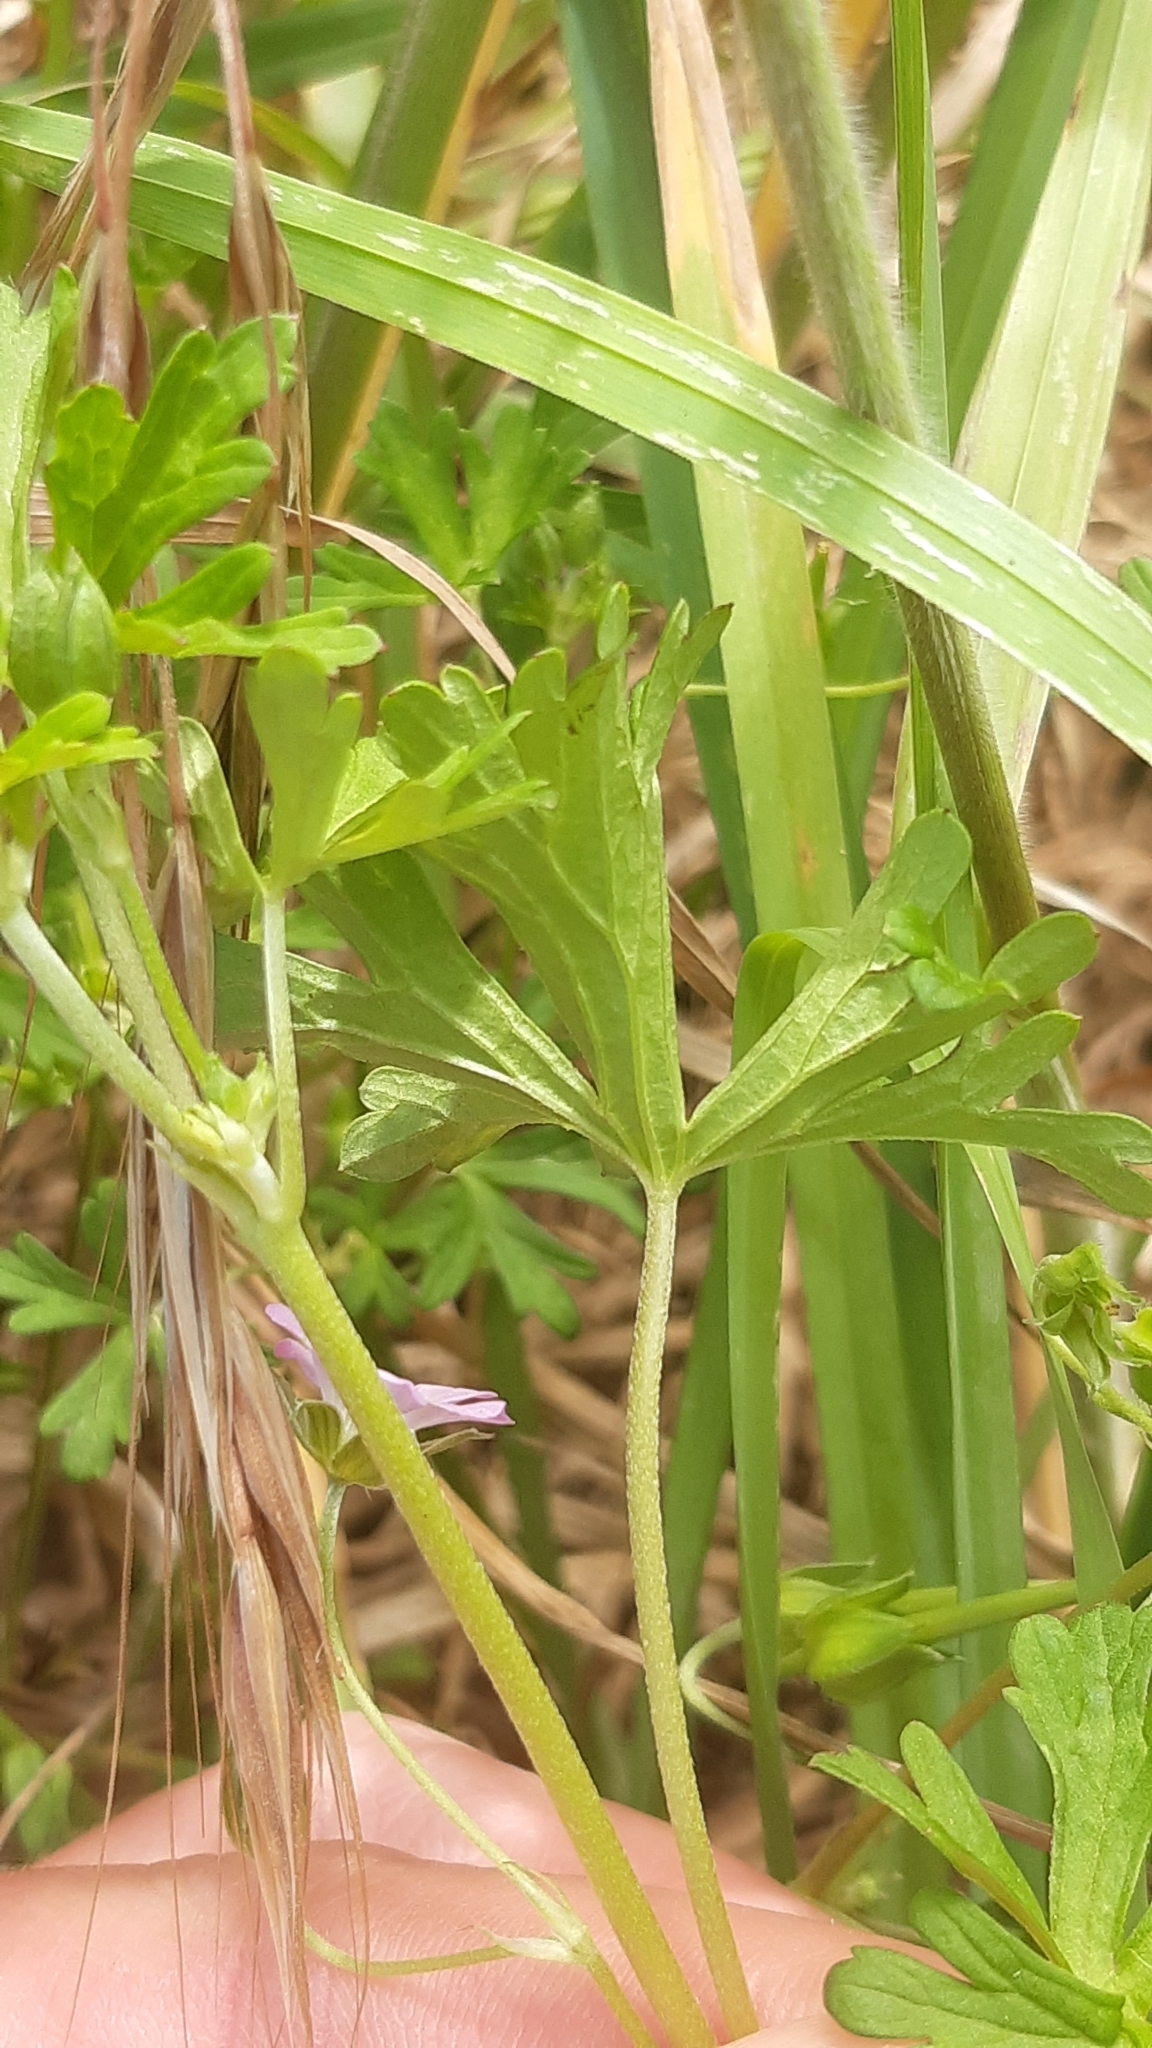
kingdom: Plantae
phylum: Tracheophyta
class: Magnoliopsida
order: Geraniales
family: Geraniaceae
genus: Geranium
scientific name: Geranium retrorsum
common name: New zealand geranium
